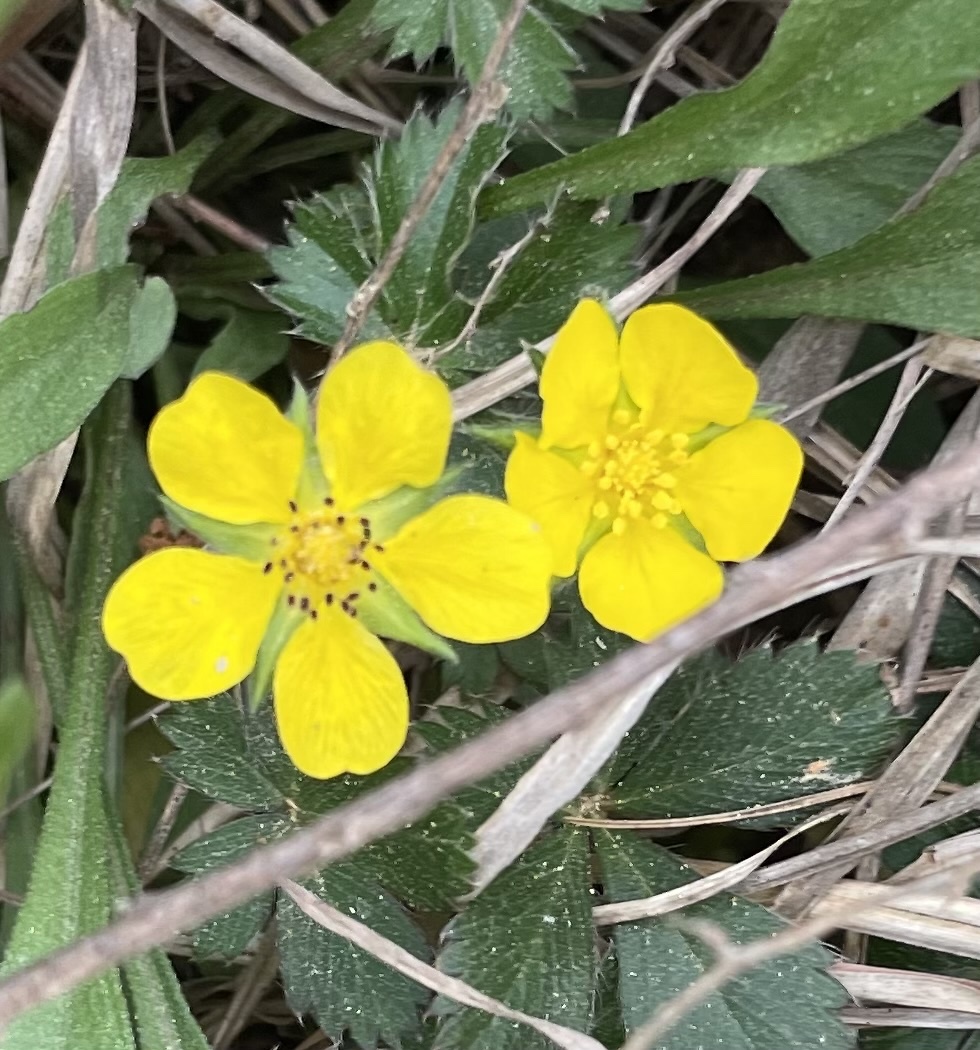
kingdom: Plantae
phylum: Tracheophyta
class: Magnoliopsida
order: Rosales
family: Rosaceae
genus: Potentilla
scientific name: Potentilla canadensis
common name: Canada cinquefoil
